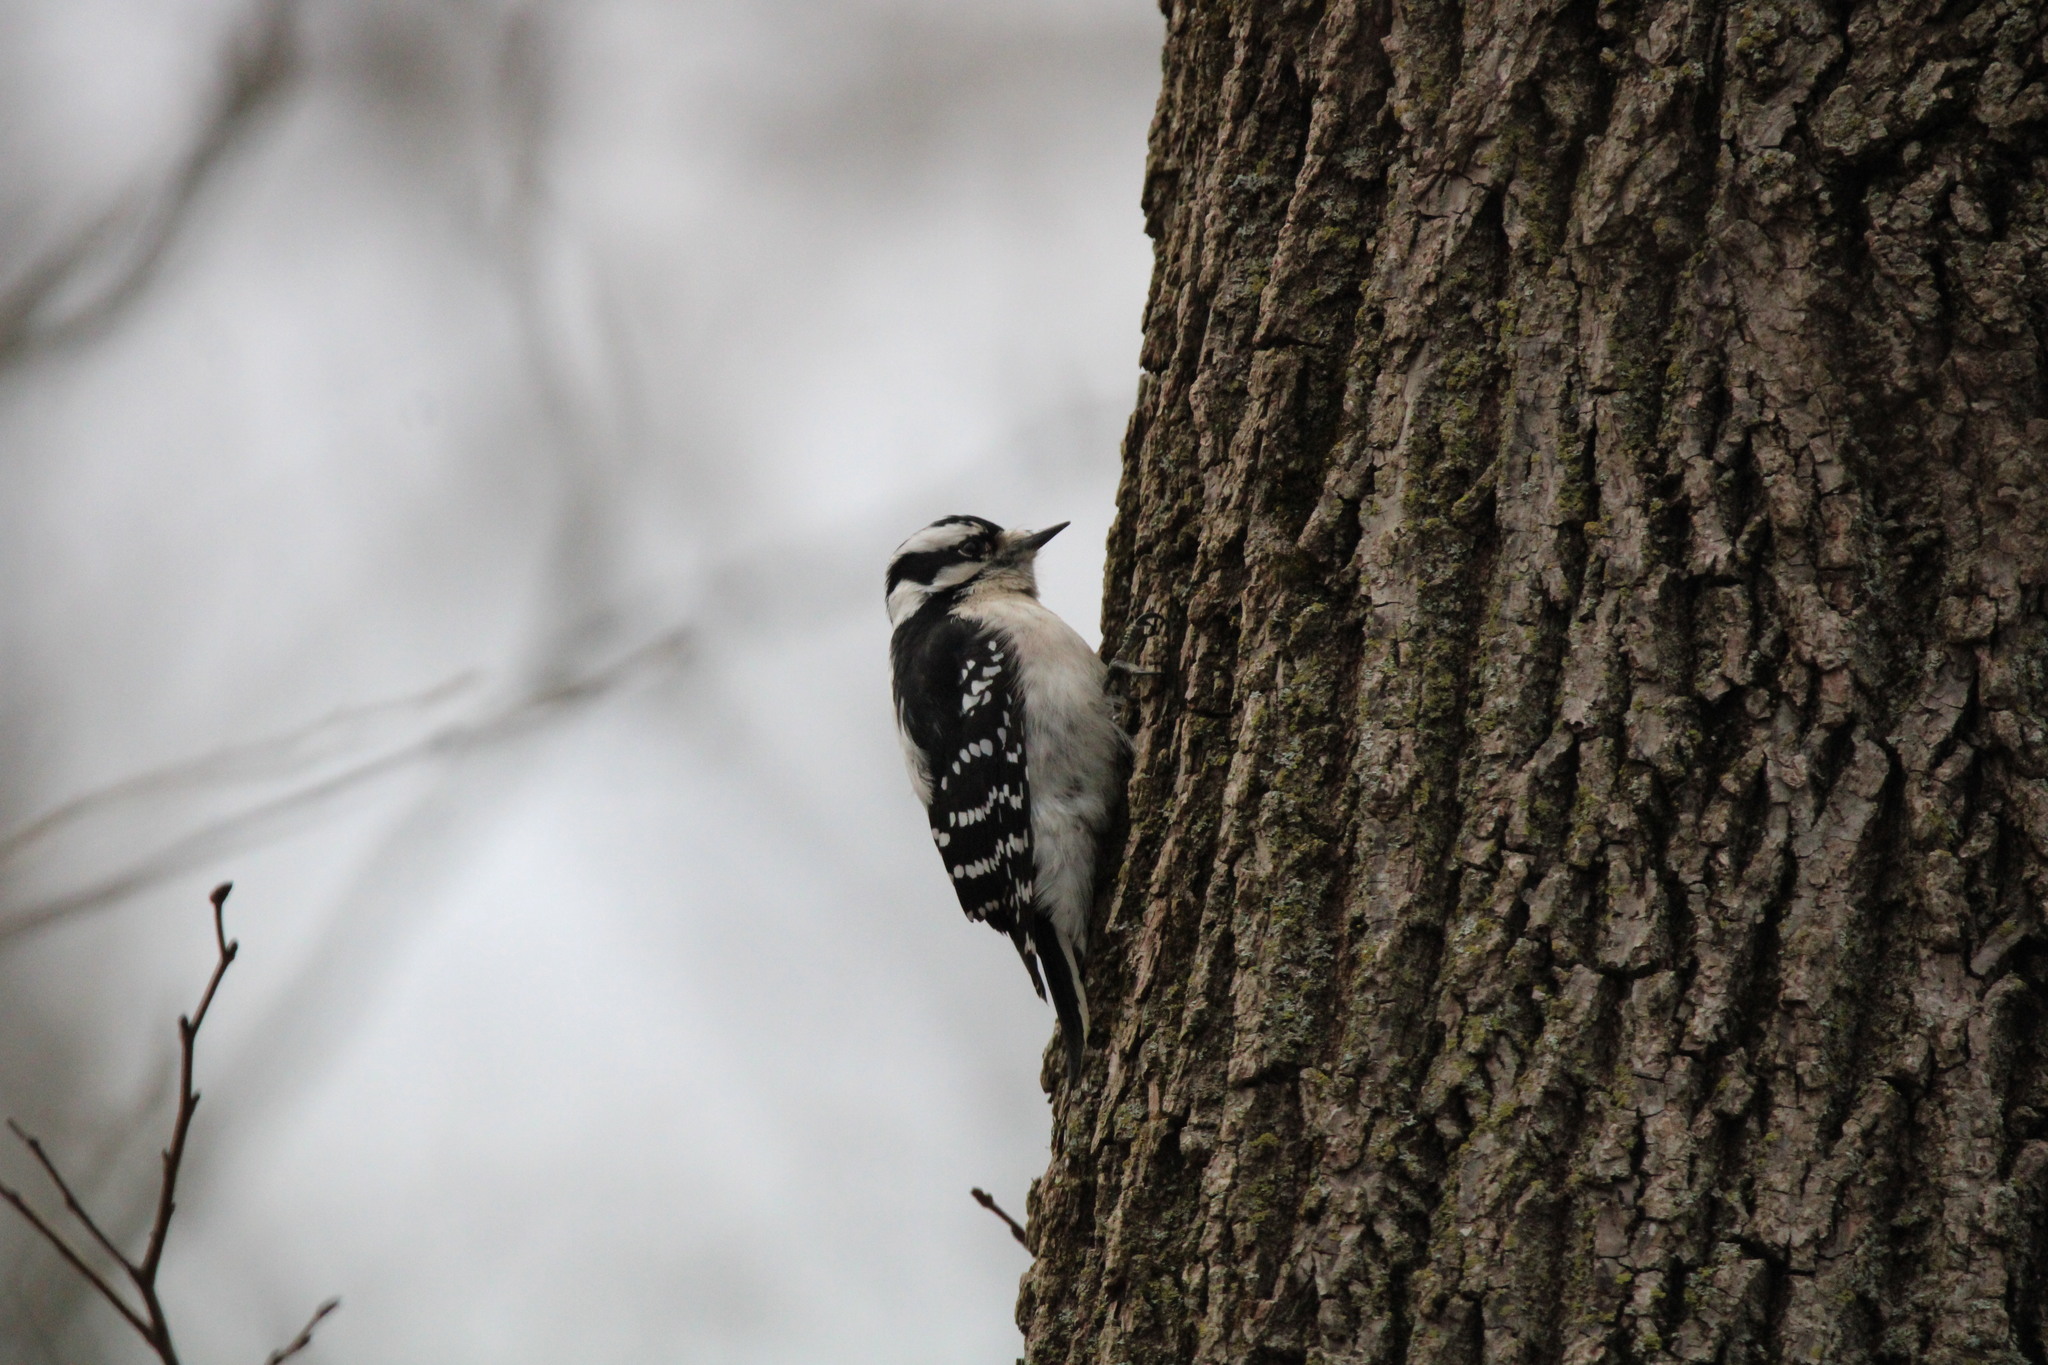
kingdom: Animalia
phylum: Chordata
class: Aves
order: Piciformes
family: Picidae
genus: Dryobates
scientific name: Dryobates pubescens
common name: Downy woodpecker
